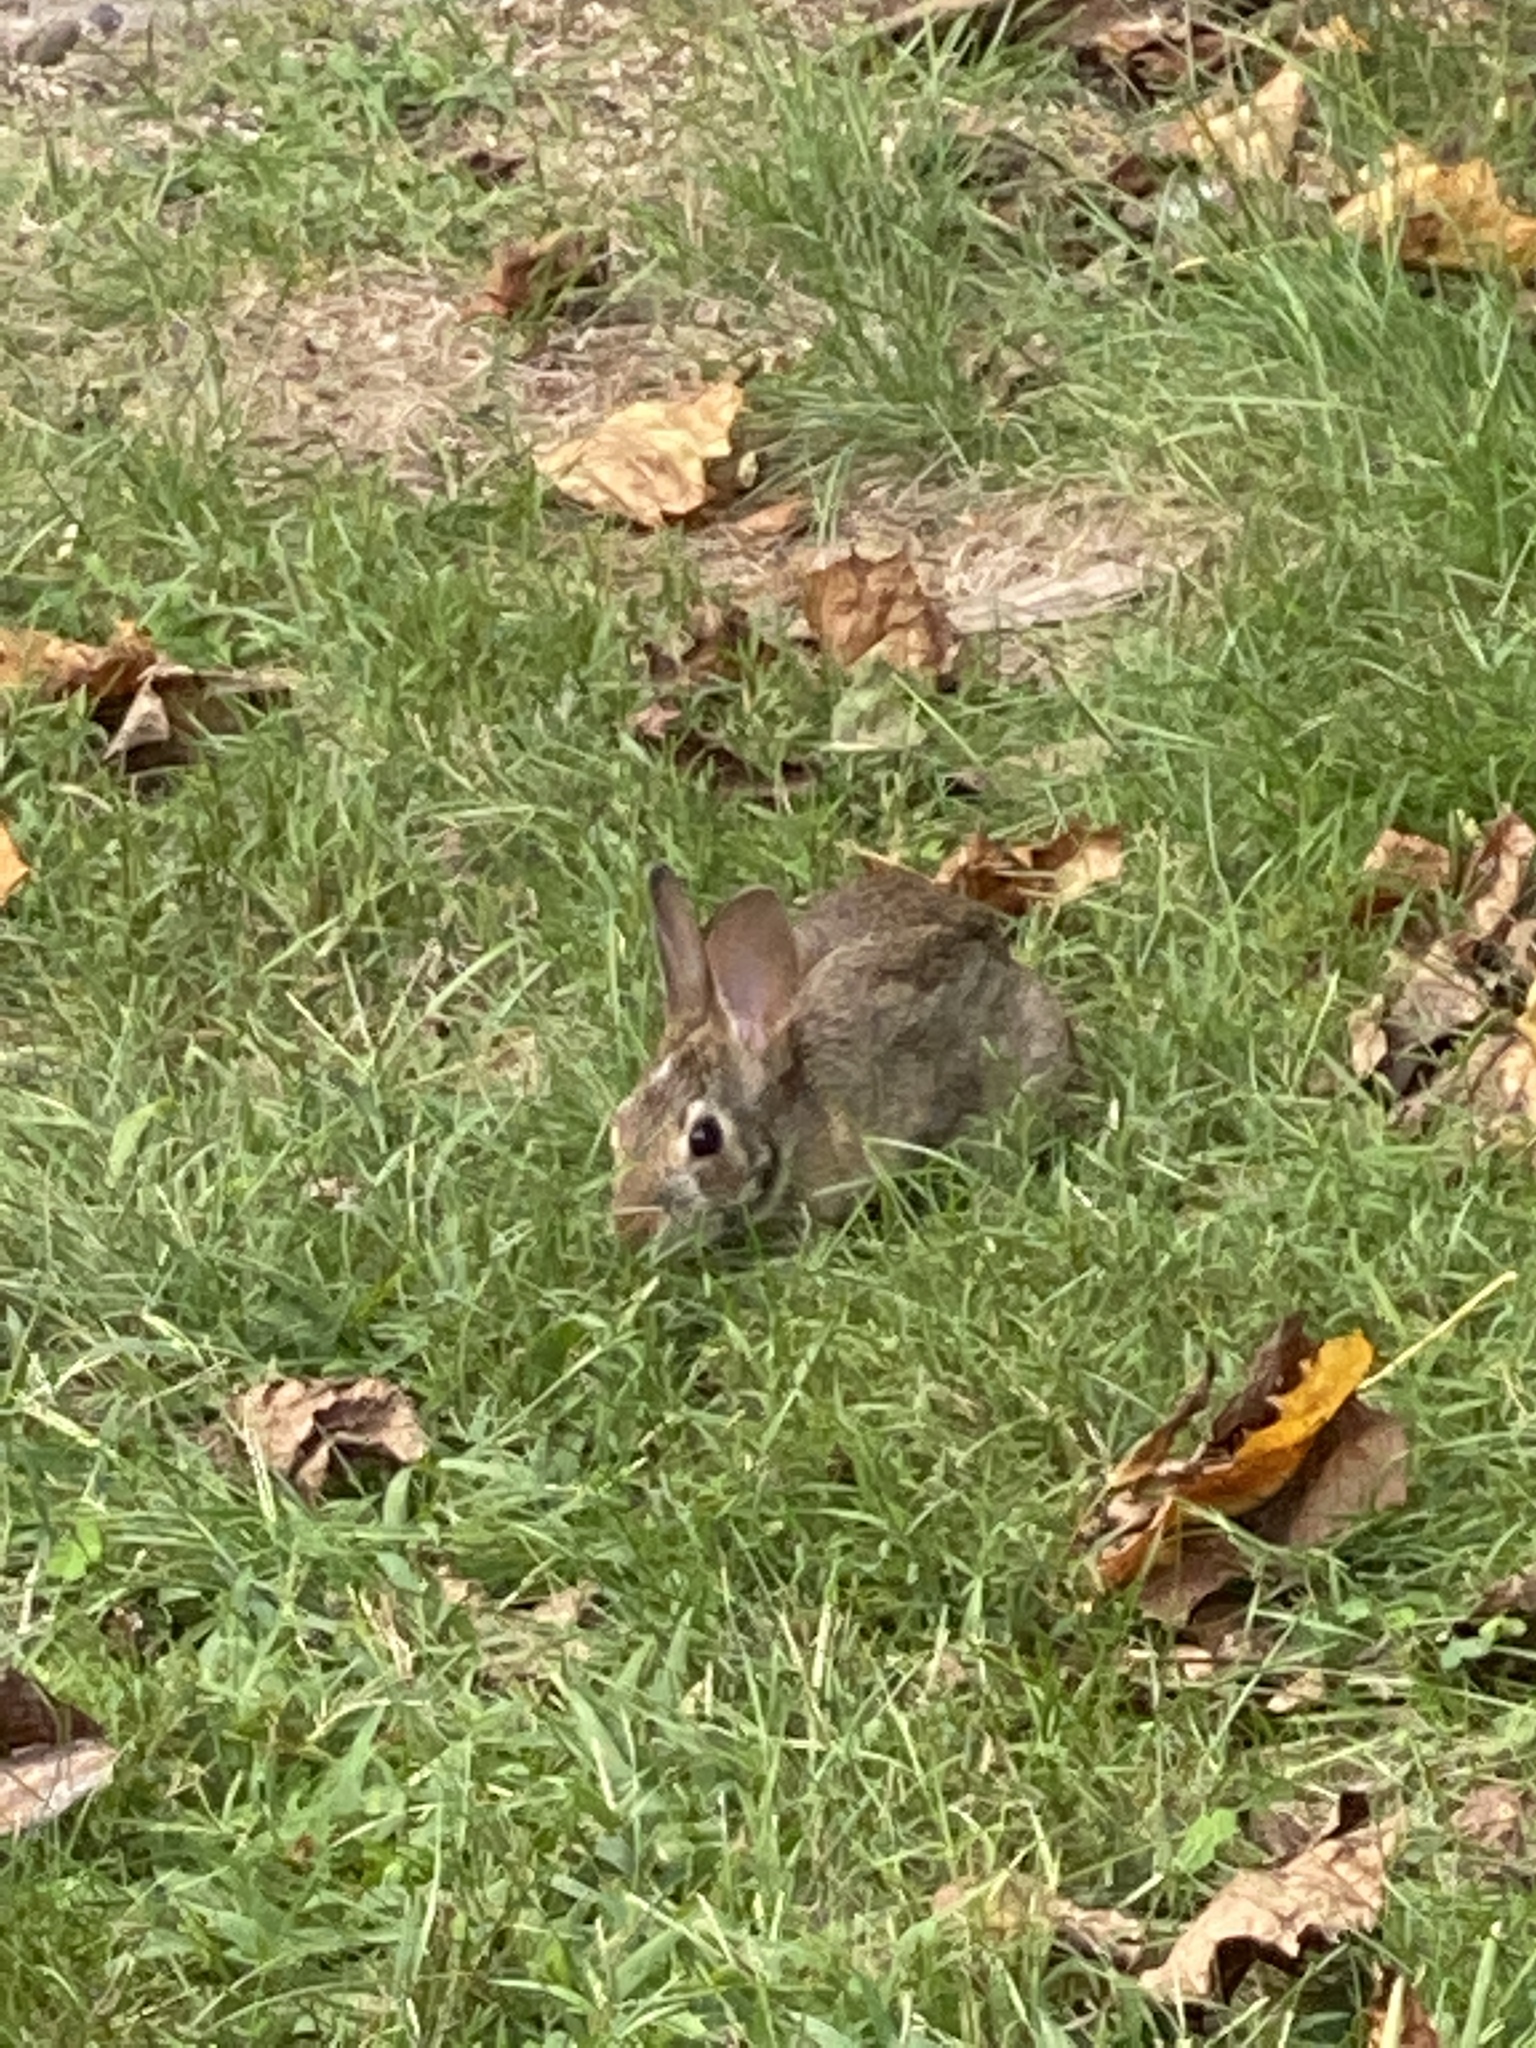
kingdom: Animalia
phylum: Chordata
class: Mammalia
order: Lagomorpha
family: Leporidae
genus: Sylvilagus
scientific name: Sylvilagus floridanus
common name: Eastern cottontail
